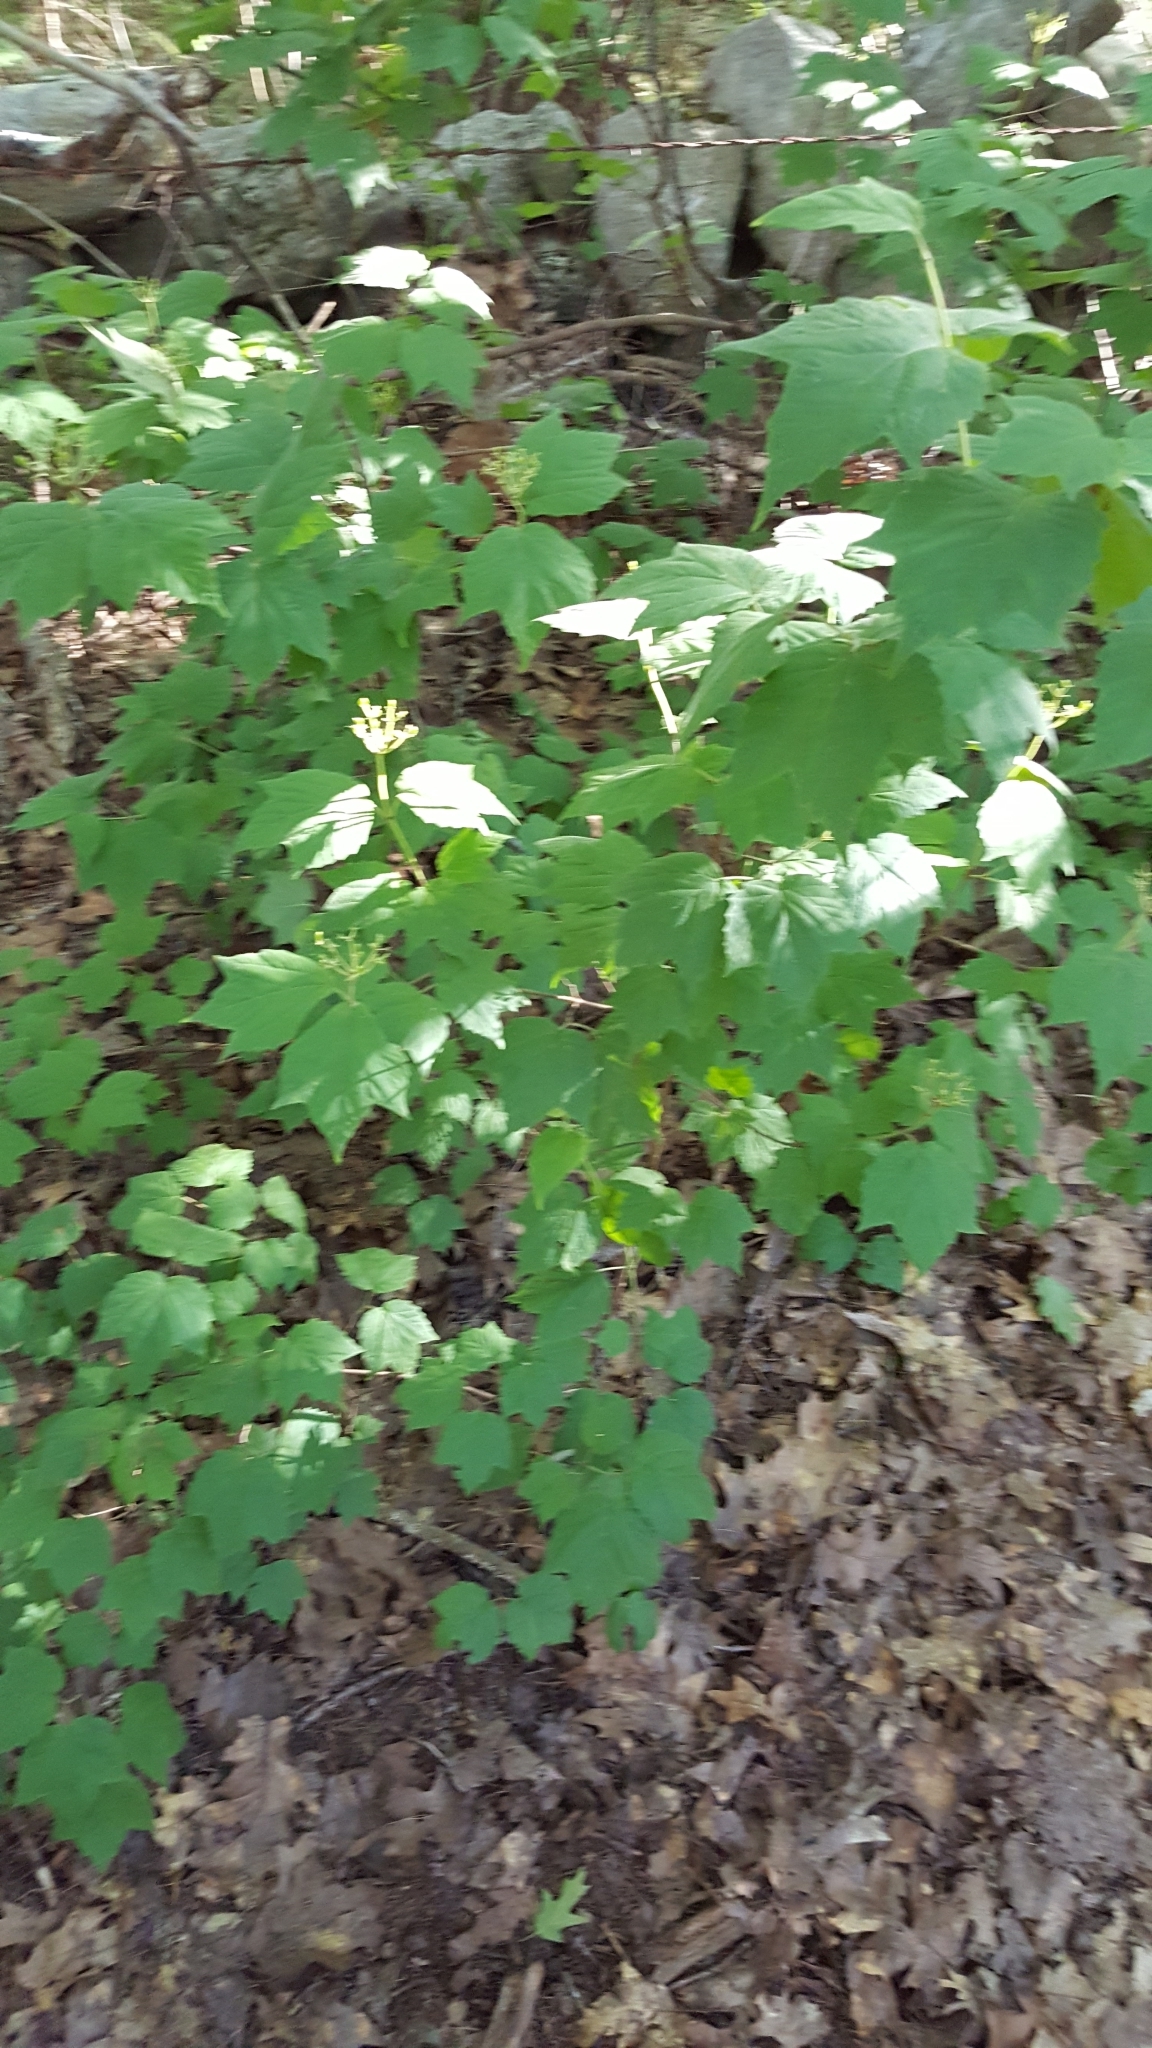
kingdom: Plantae
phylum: Tracheophyta
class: Magnoliopsida
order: Dipsacales
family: Viburnaceae
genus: Viburnum
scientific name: Viburnum acerifolium
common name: Dockmackie
